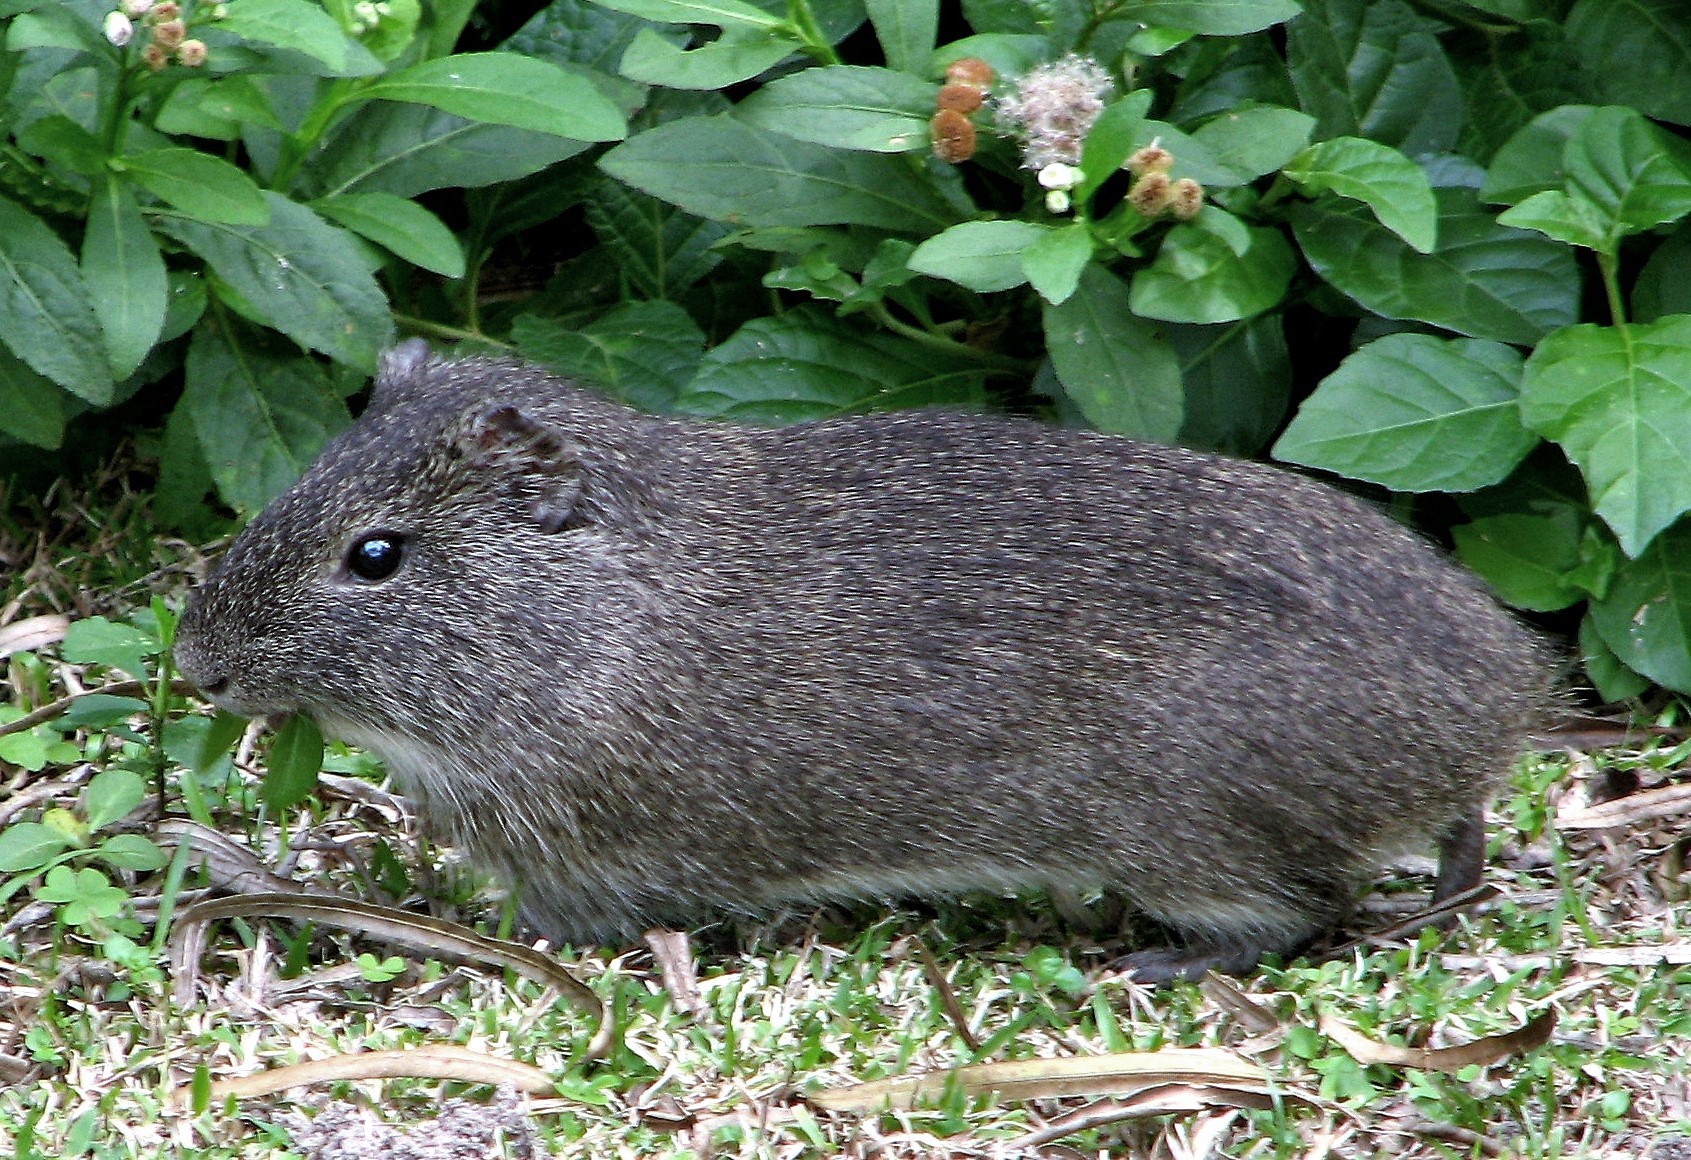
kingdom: Animalia
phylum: Chordata
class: Mammalia
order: Rodentia
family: Caviidae
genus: Cavia
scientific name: Cavia aperea
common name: Brazilian guinea pig
